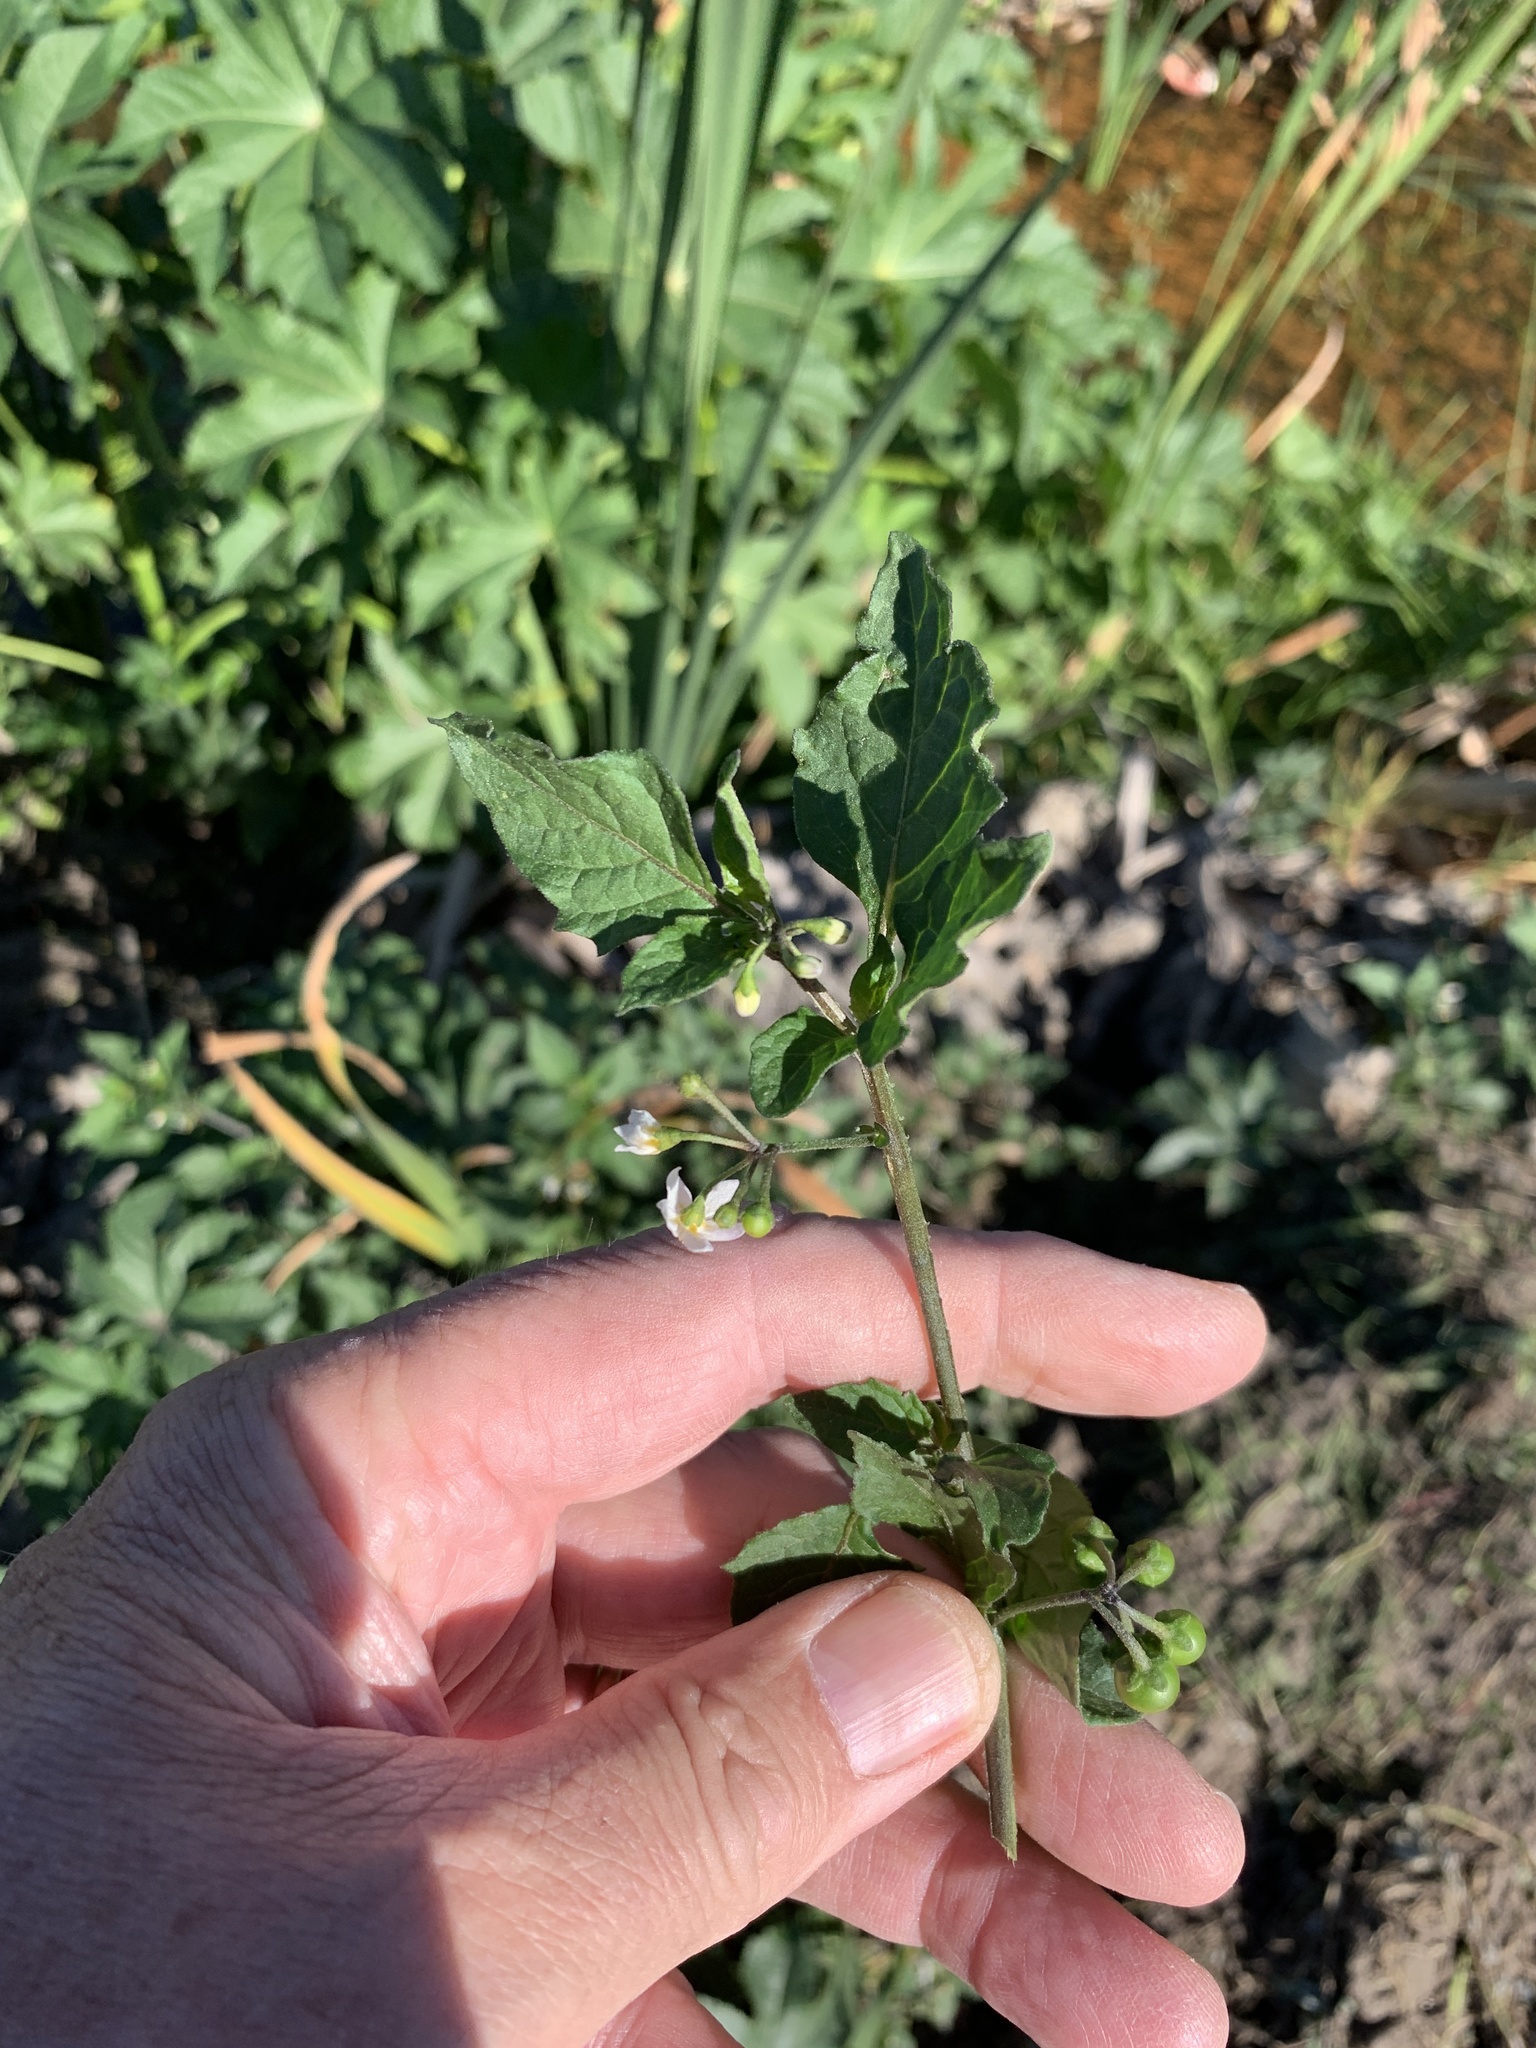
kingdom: Plantae
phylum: Tracheophyta
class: Magnoliopsida
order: Solanales
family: Solanaceae
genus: Solanum
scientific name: Solanum nigrum
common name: Black nightshade
